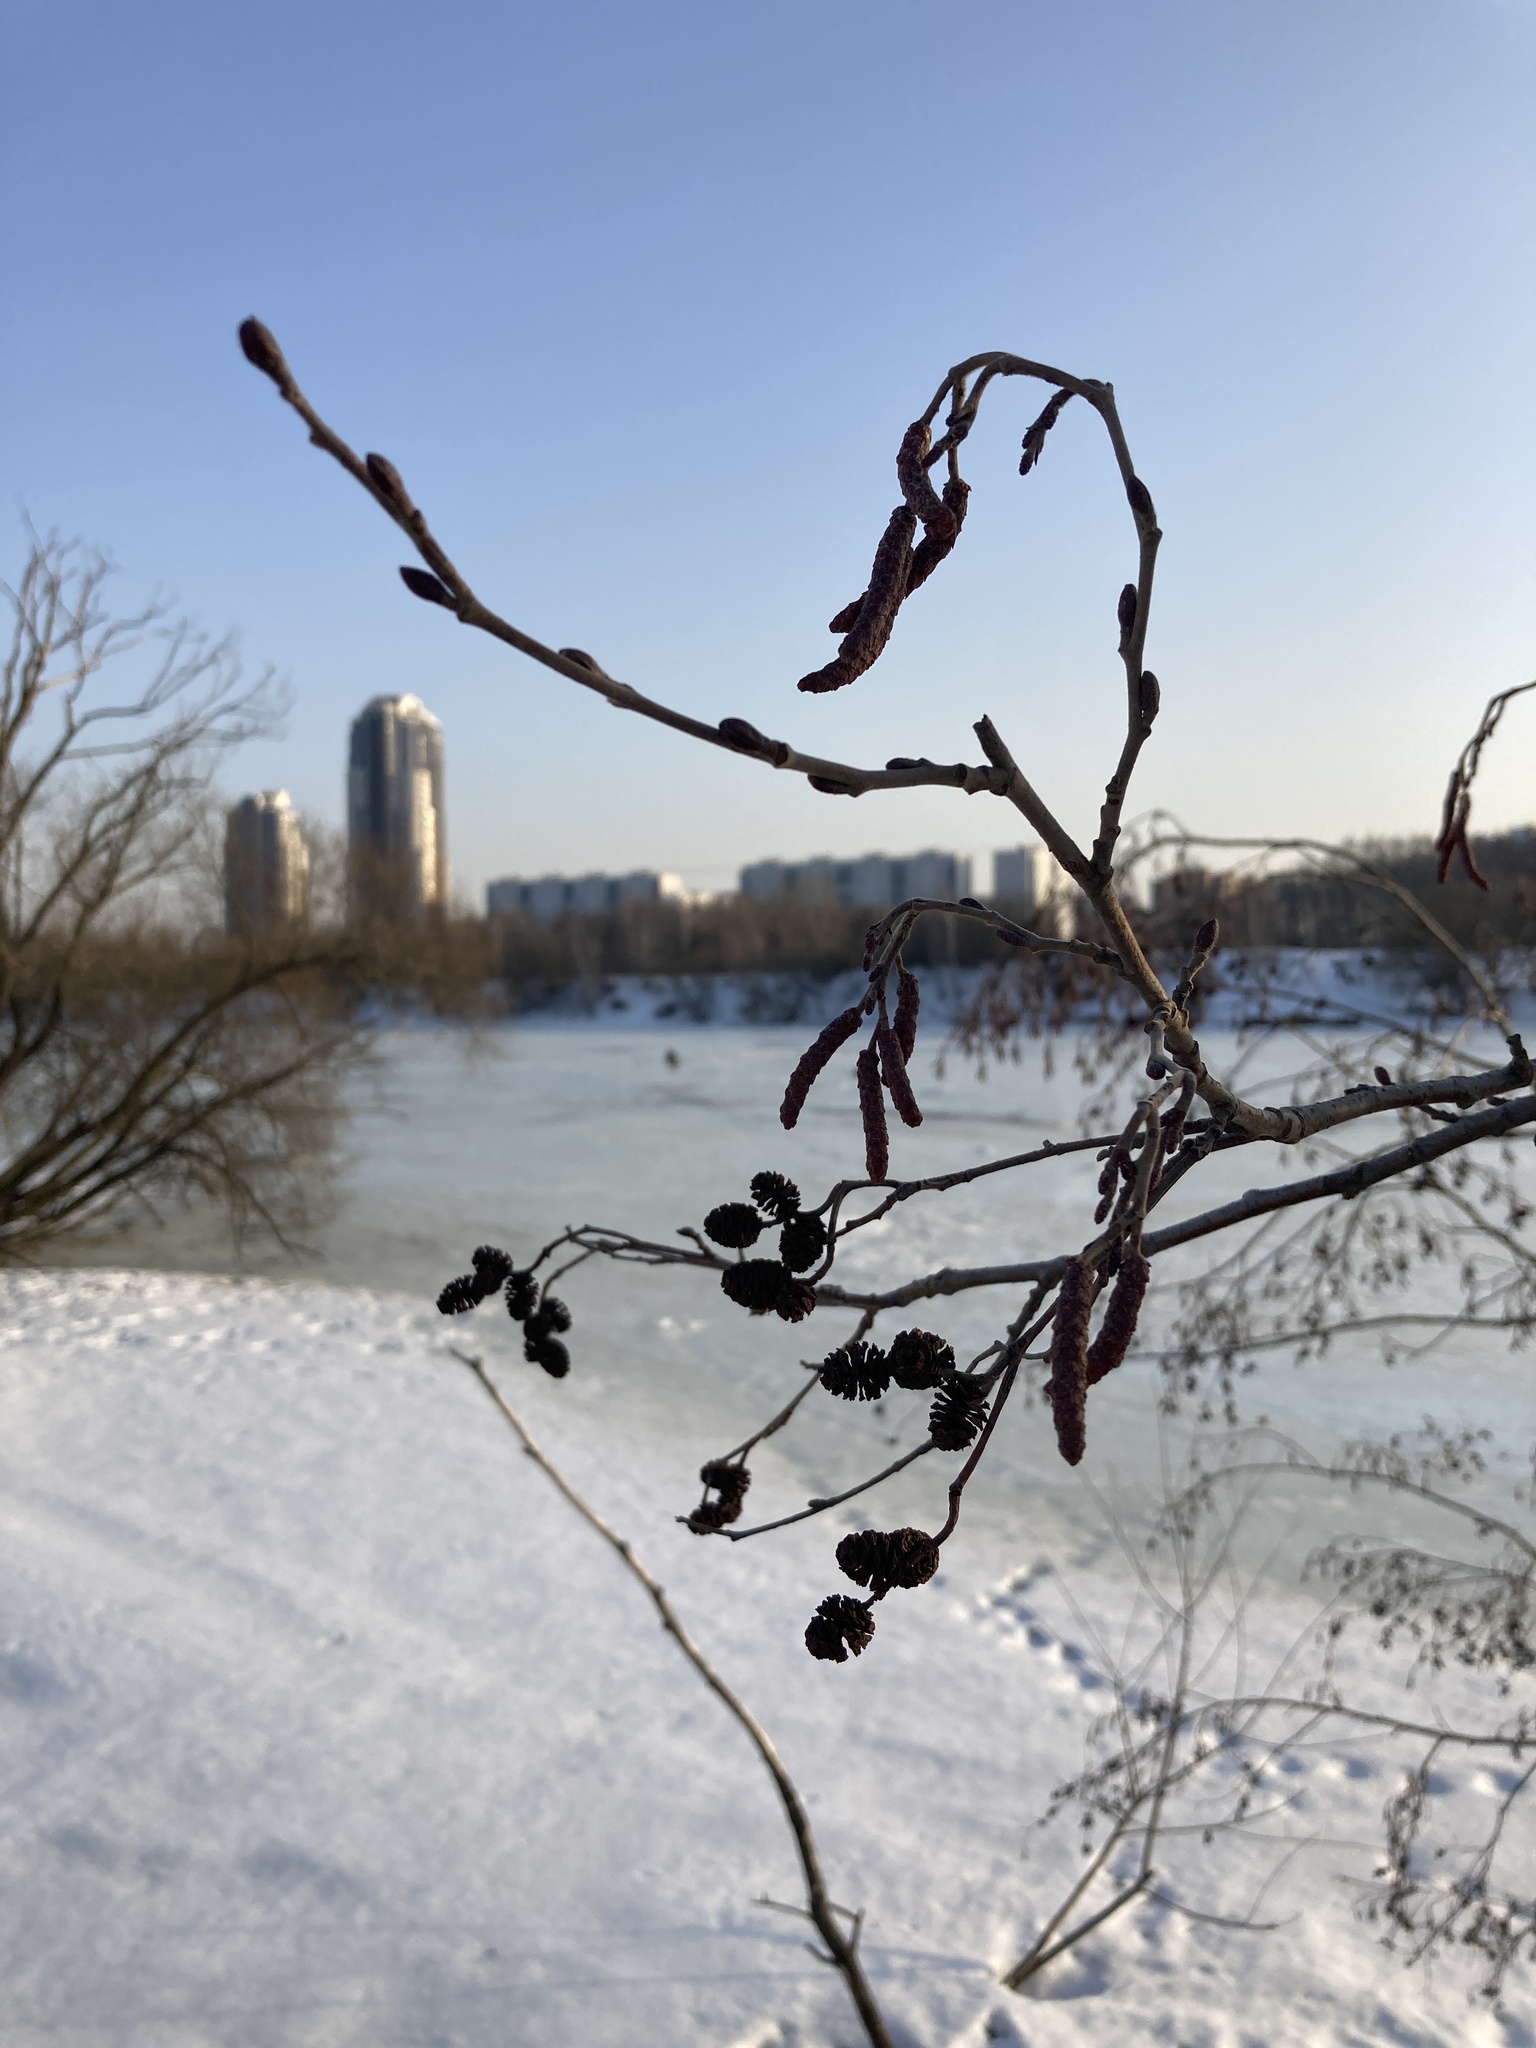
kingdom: Plantae
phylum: Tracheophyta
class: Magnoliopsida
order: Fagales
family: Betulaceae
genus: Alnus
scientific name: Alnus incana
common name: Grey alder
